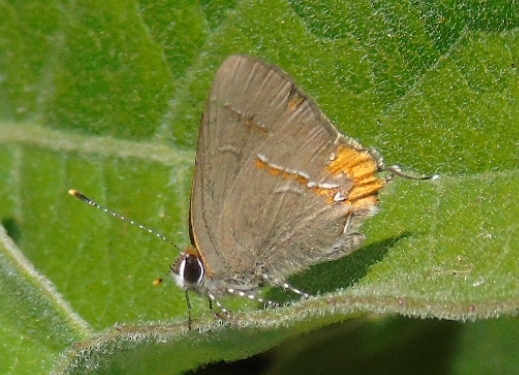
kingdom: Animalia
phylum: Arthropoda
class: Insecta
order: Lepidoptera
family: Lycaenidae
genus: Electrostrymon
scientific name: Electrostrymon endymion
